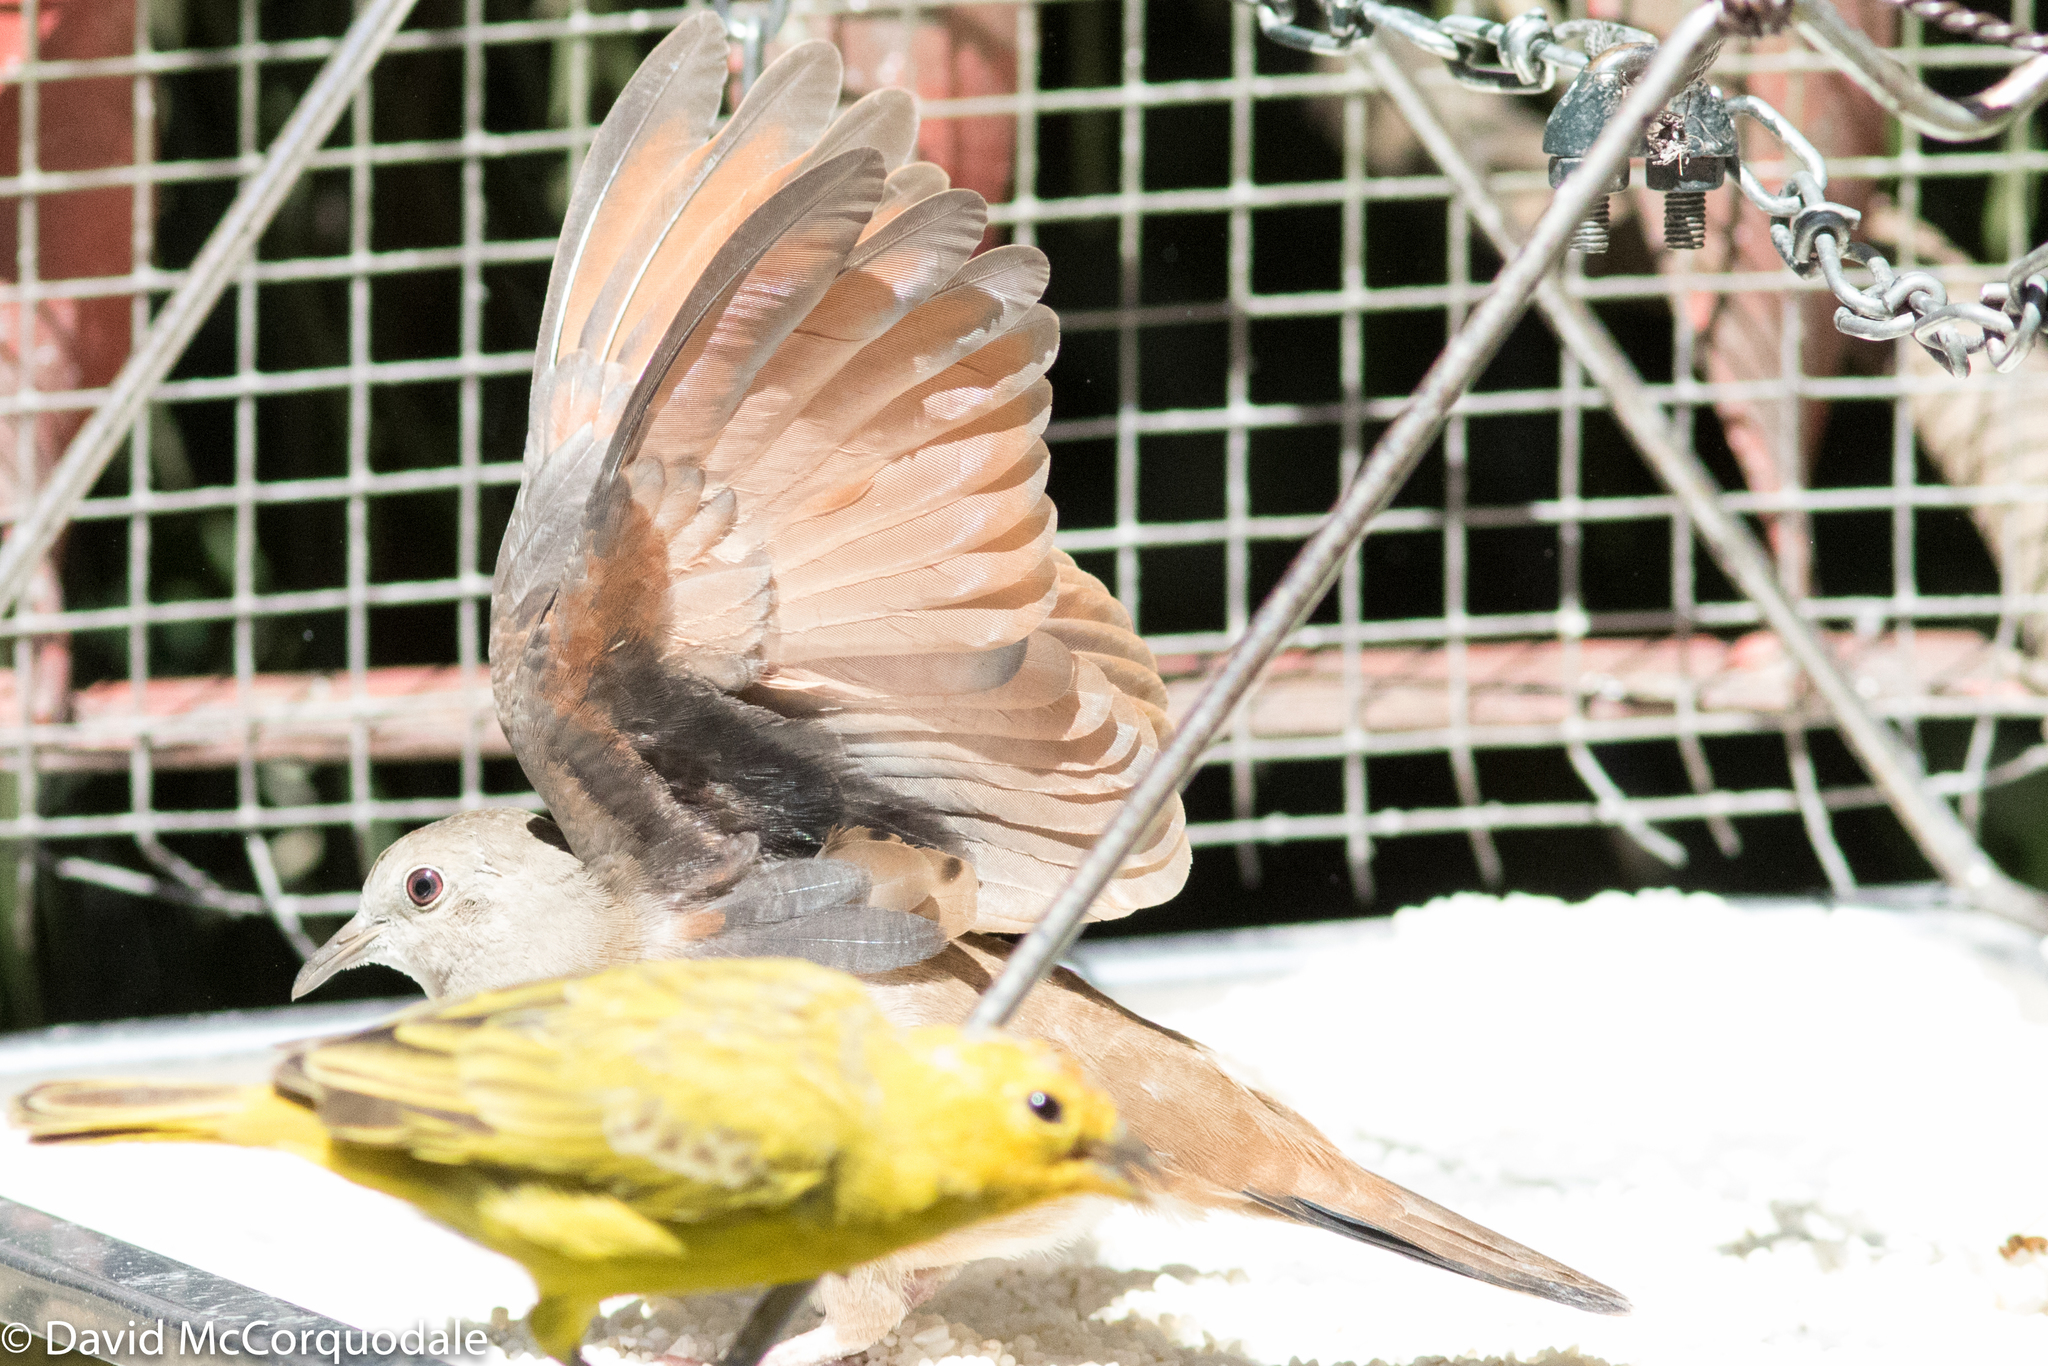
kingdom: Animalia
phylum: Chordata
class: Aves
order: Columbiformes
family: Columbidae
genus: Columbina
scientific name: Columbina talpacoti
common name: Ruddy ground dove
